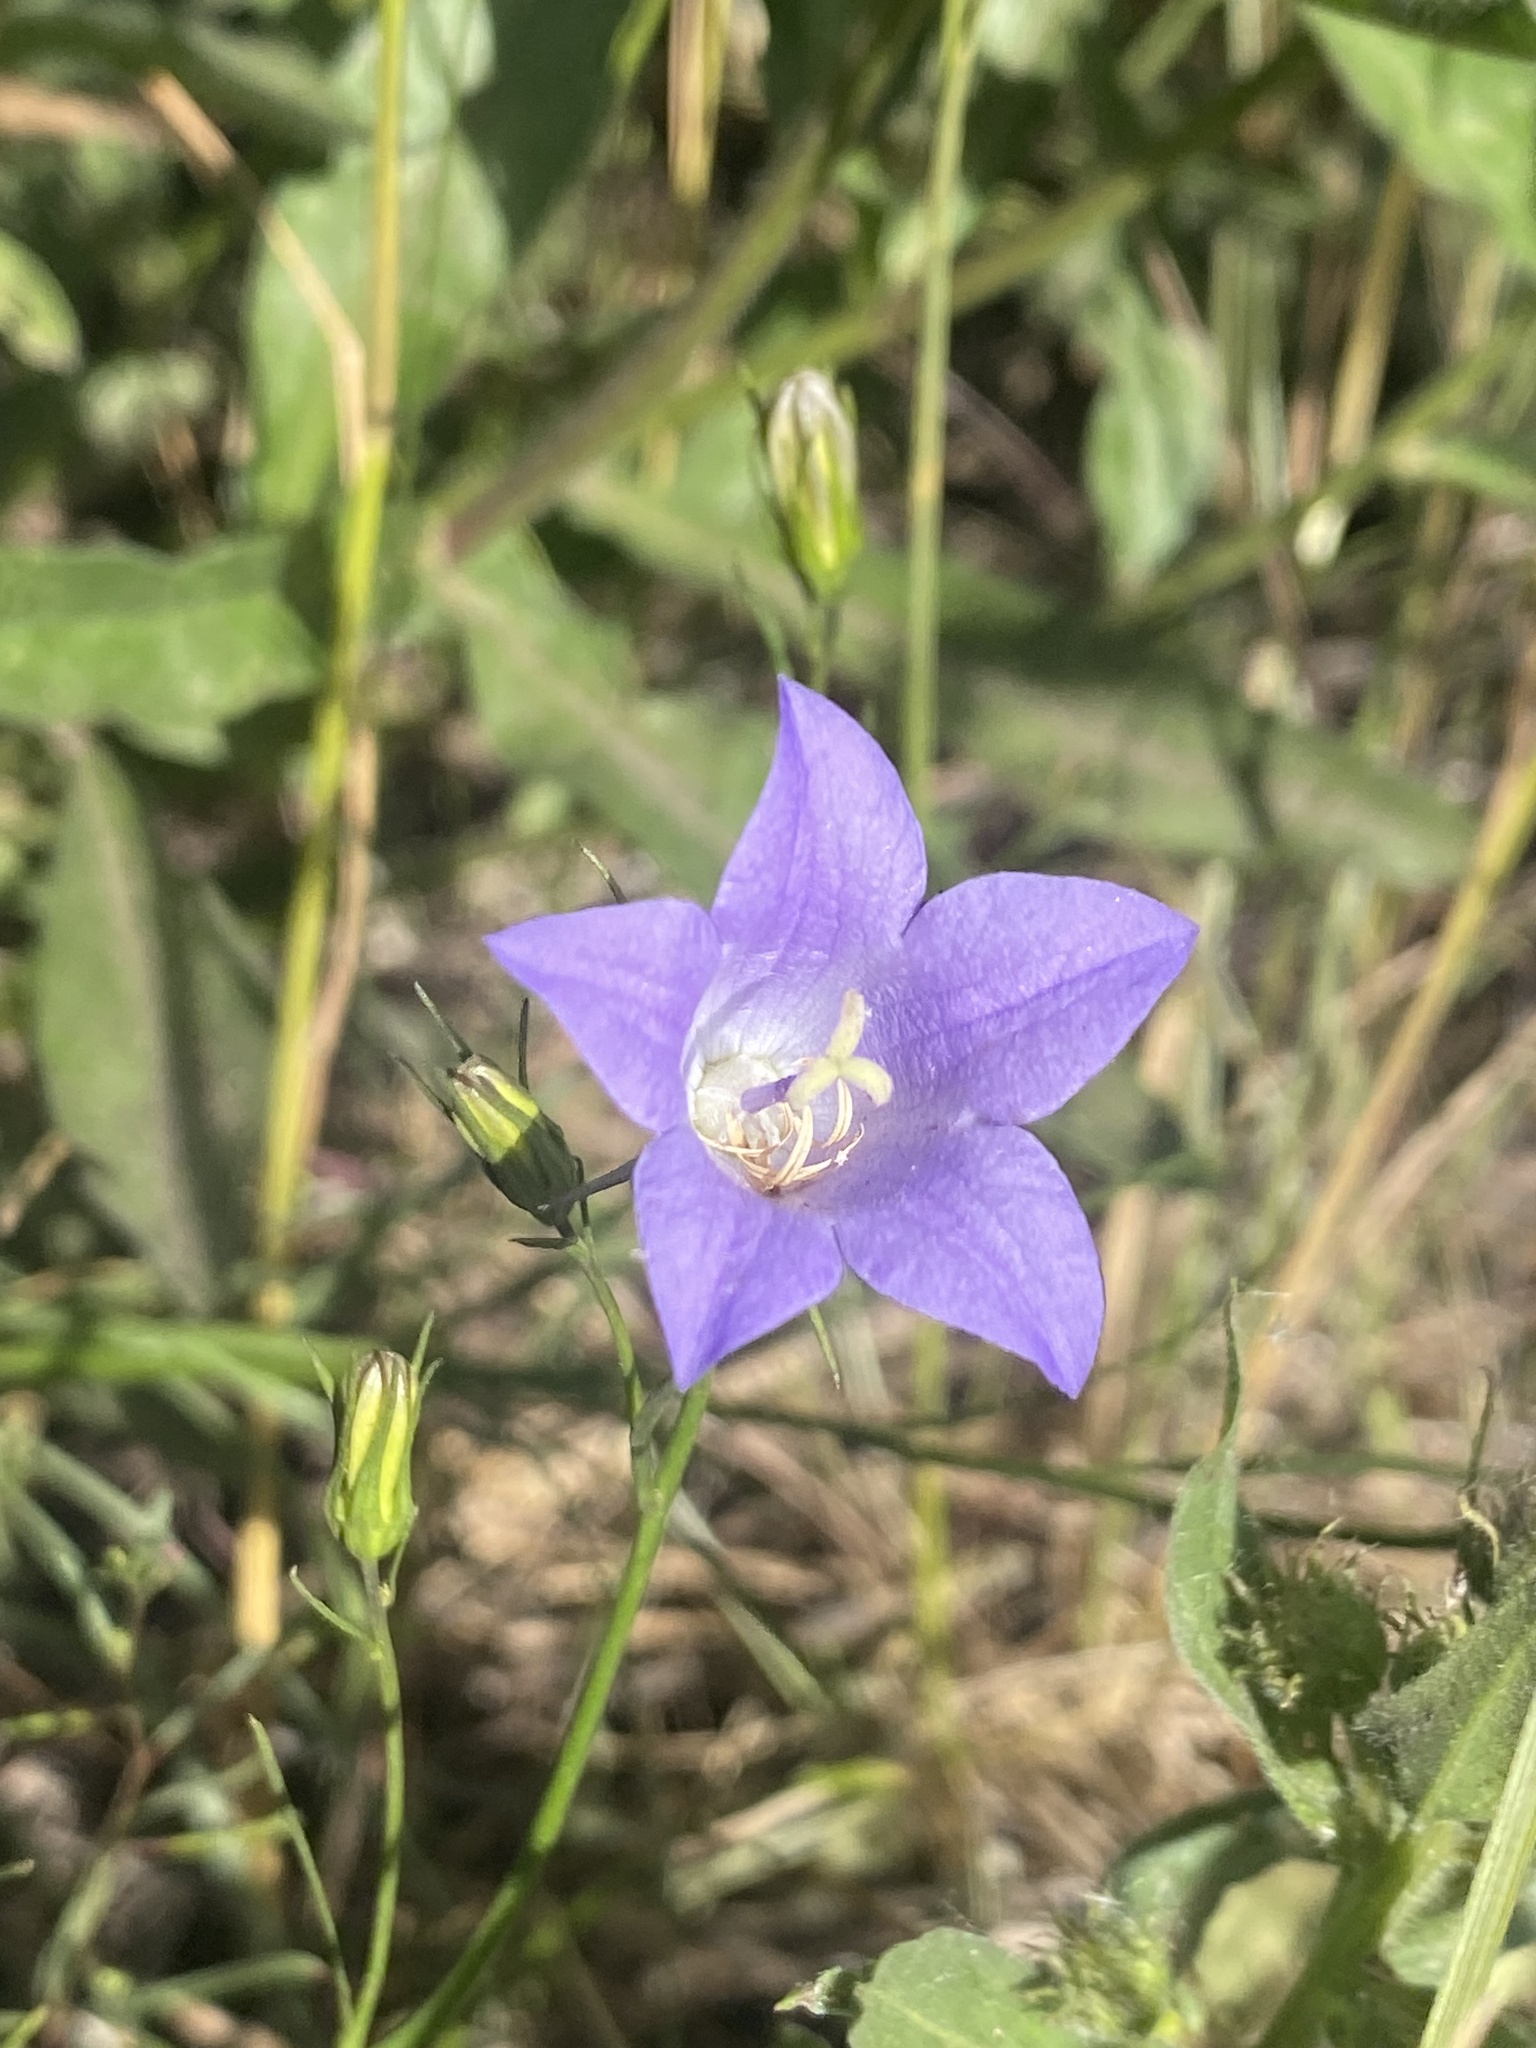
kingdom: Plantae
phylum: Tracheophyta
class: Magnoliopsida
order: Asterales
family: Campanulaceae
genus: Campanula
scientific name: Campanula petiolata
